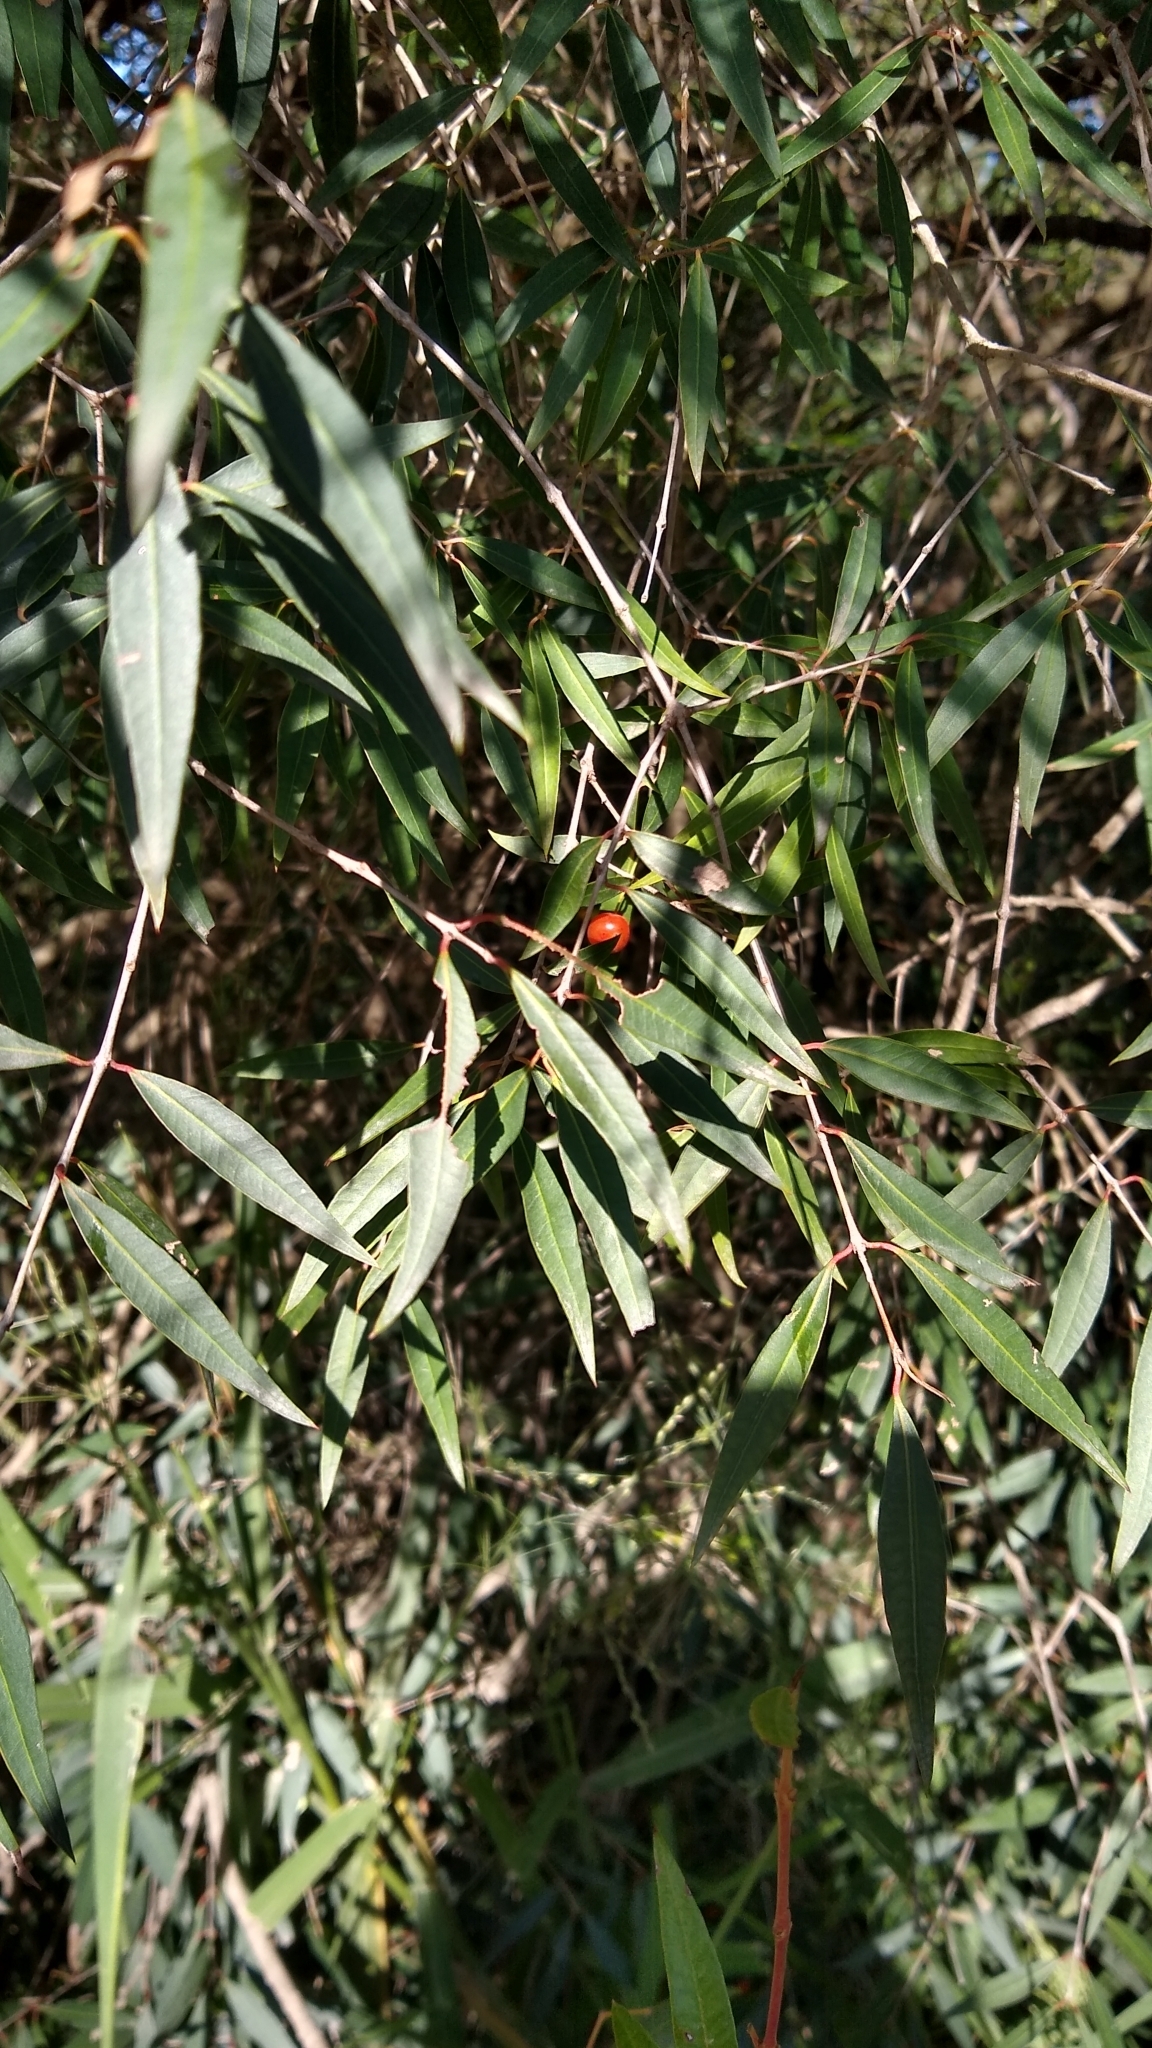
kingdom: Plantae
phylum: Tracheophyta
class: Magnoliopsida
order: Myrtales
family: Myrtaceae
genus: Blepharocalyx
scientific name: Blepharocalyx salicifolius
